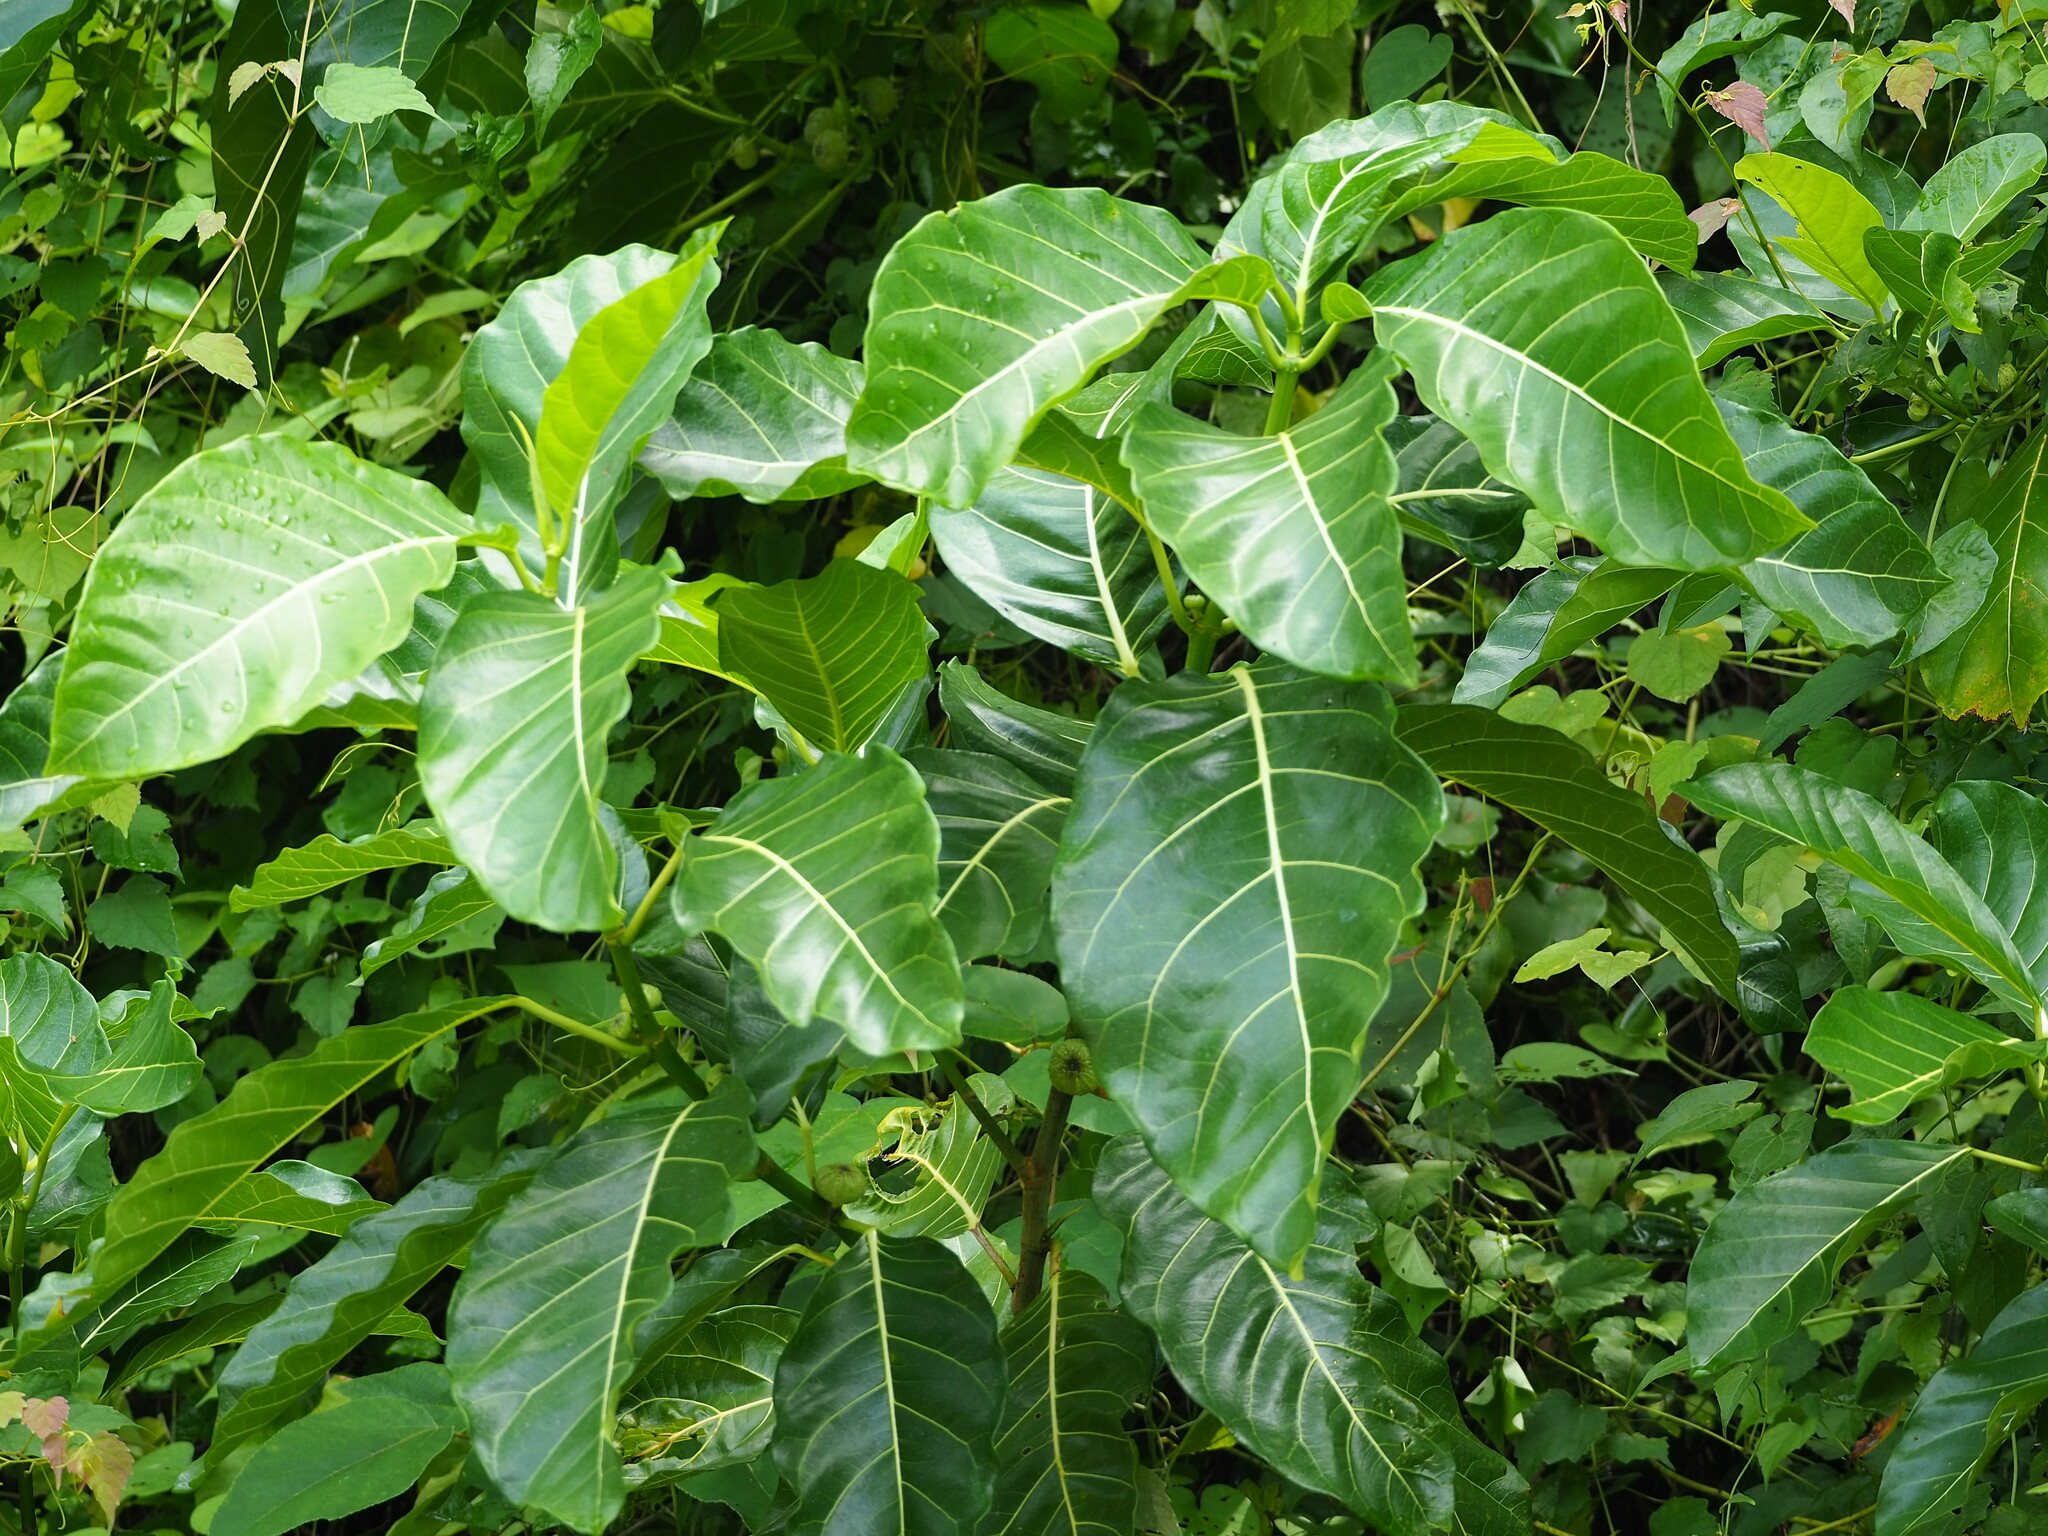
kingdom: Plantae
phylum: Tracheophyta
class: Magnoliopsida
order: Rosales
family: Moraceae
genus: Ficus
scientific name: Ficus septica
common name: Septic fig
